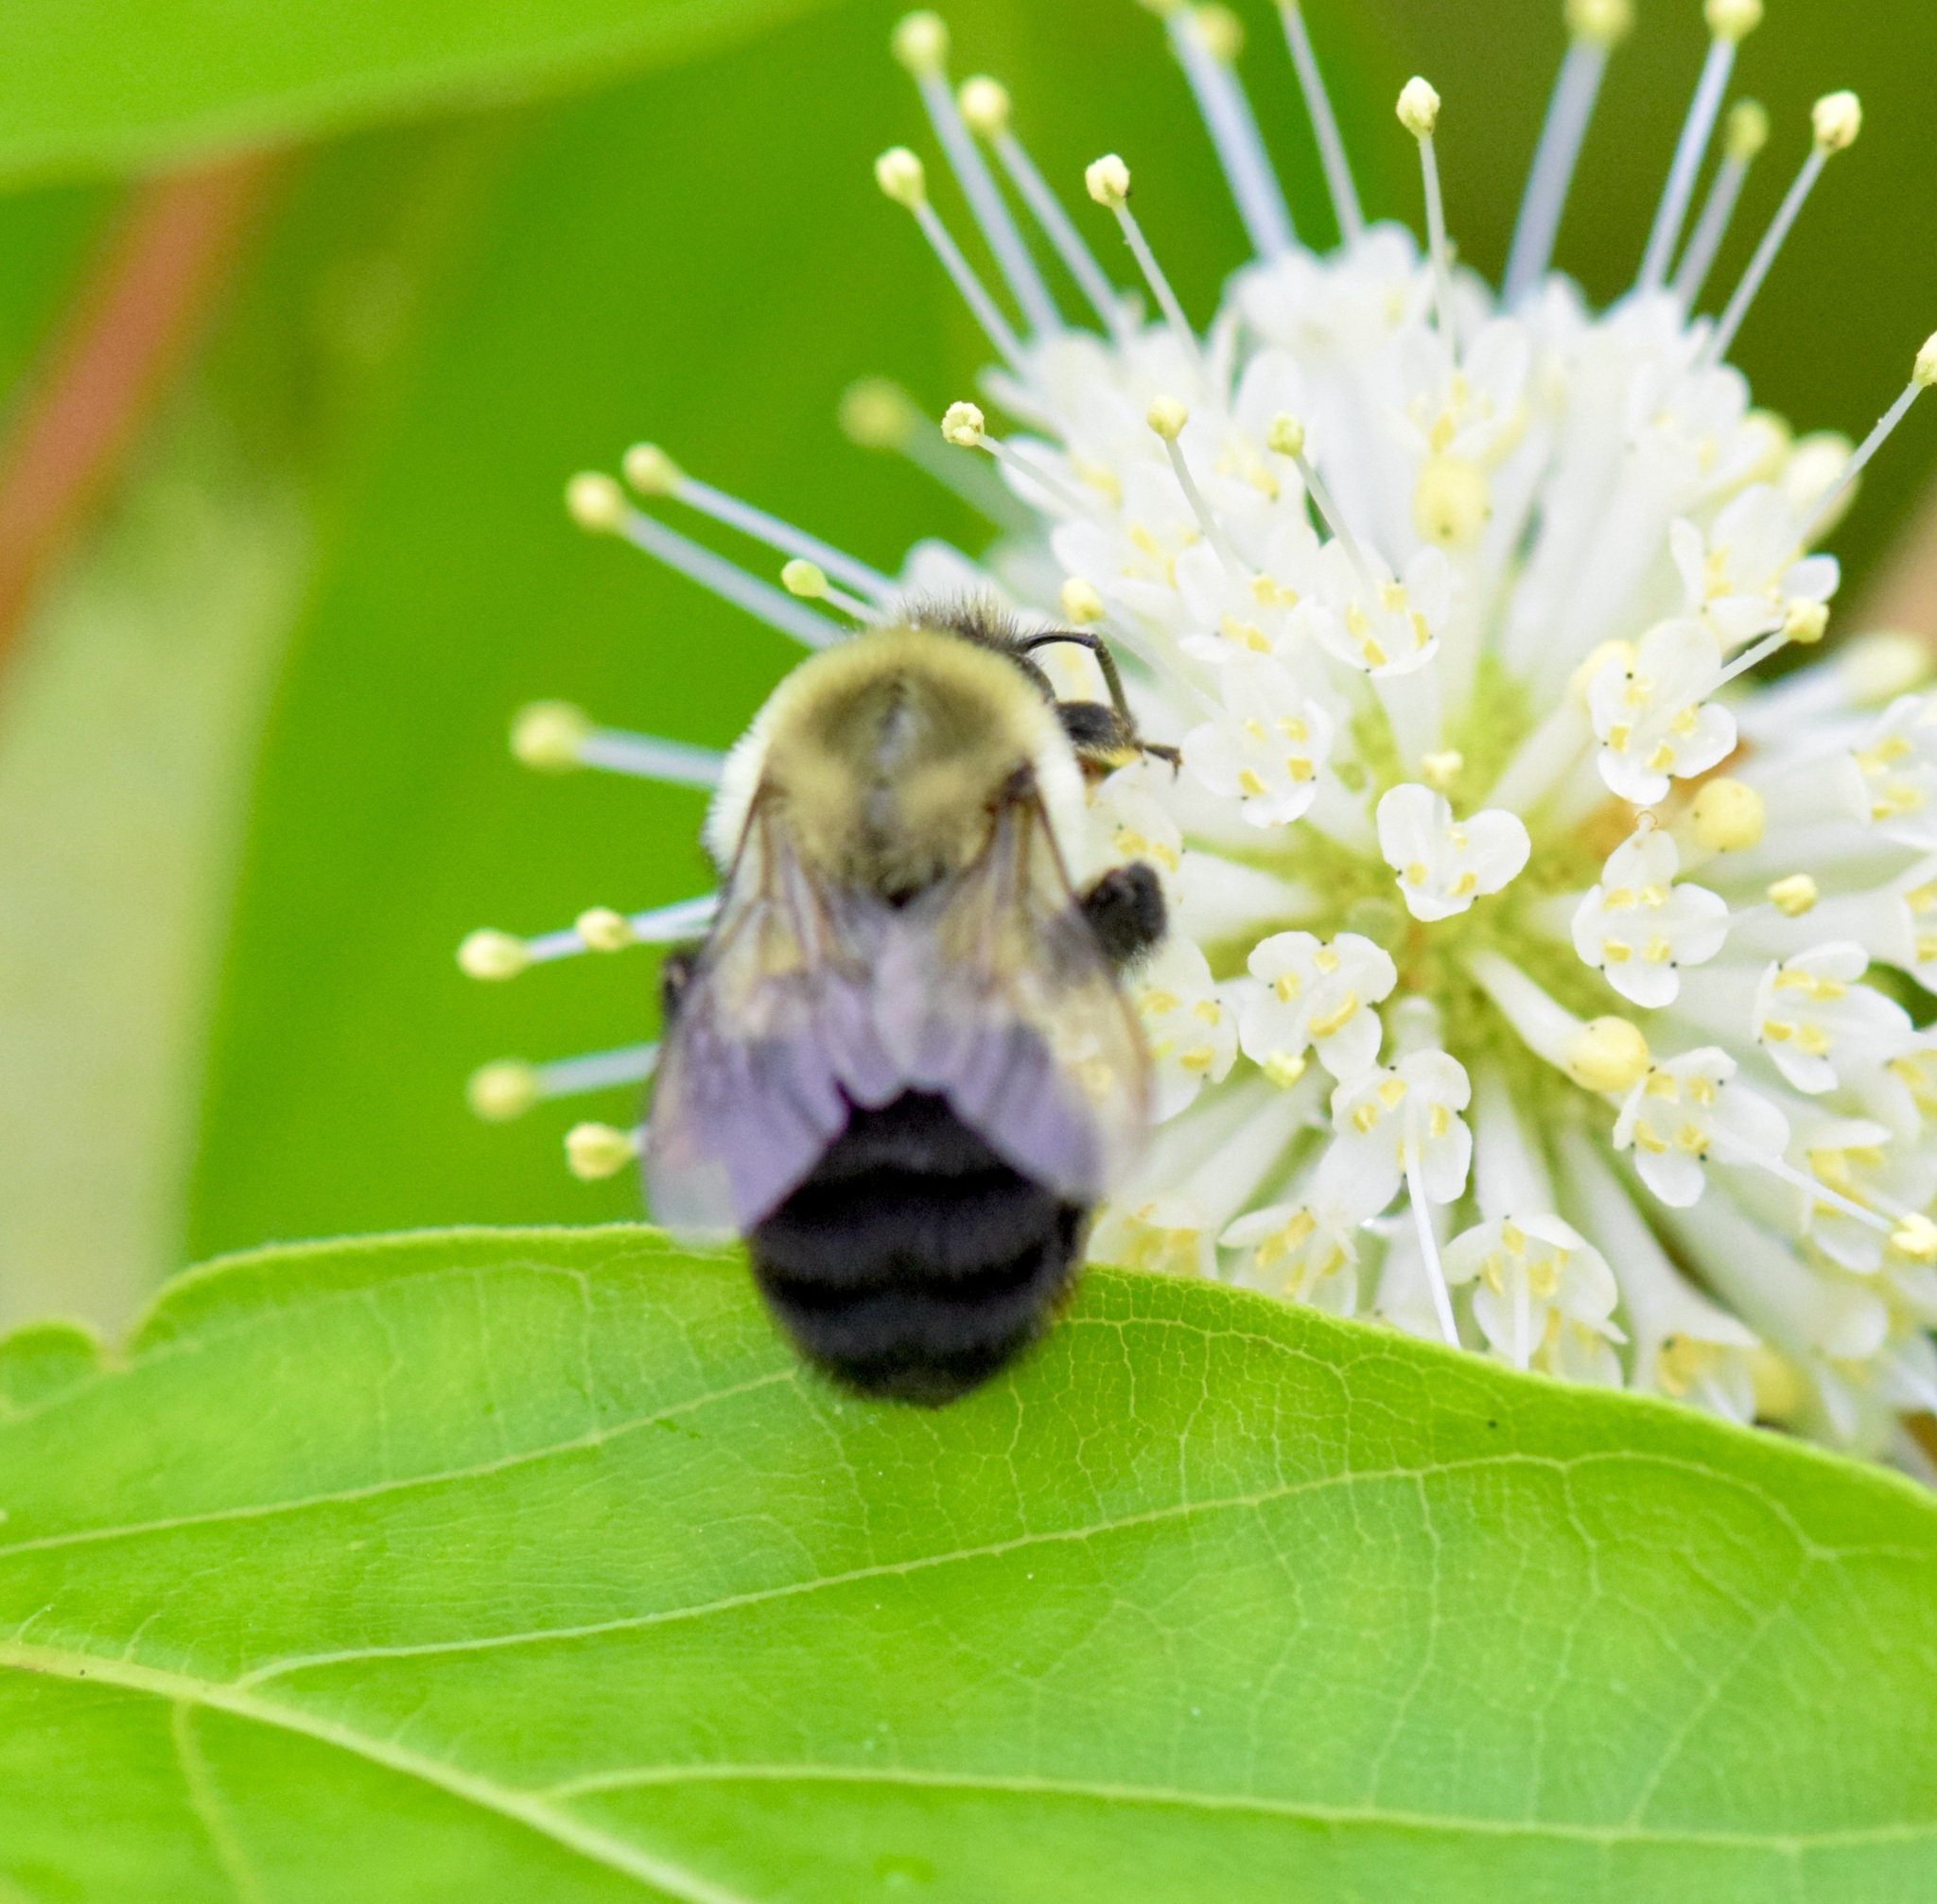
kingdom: Animalia
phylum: Arthropoda
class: Insecta
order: Hymenoptera
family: Apidae
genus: Bombus
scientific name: Bombus impatiens
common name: Common eastern bumble bee
